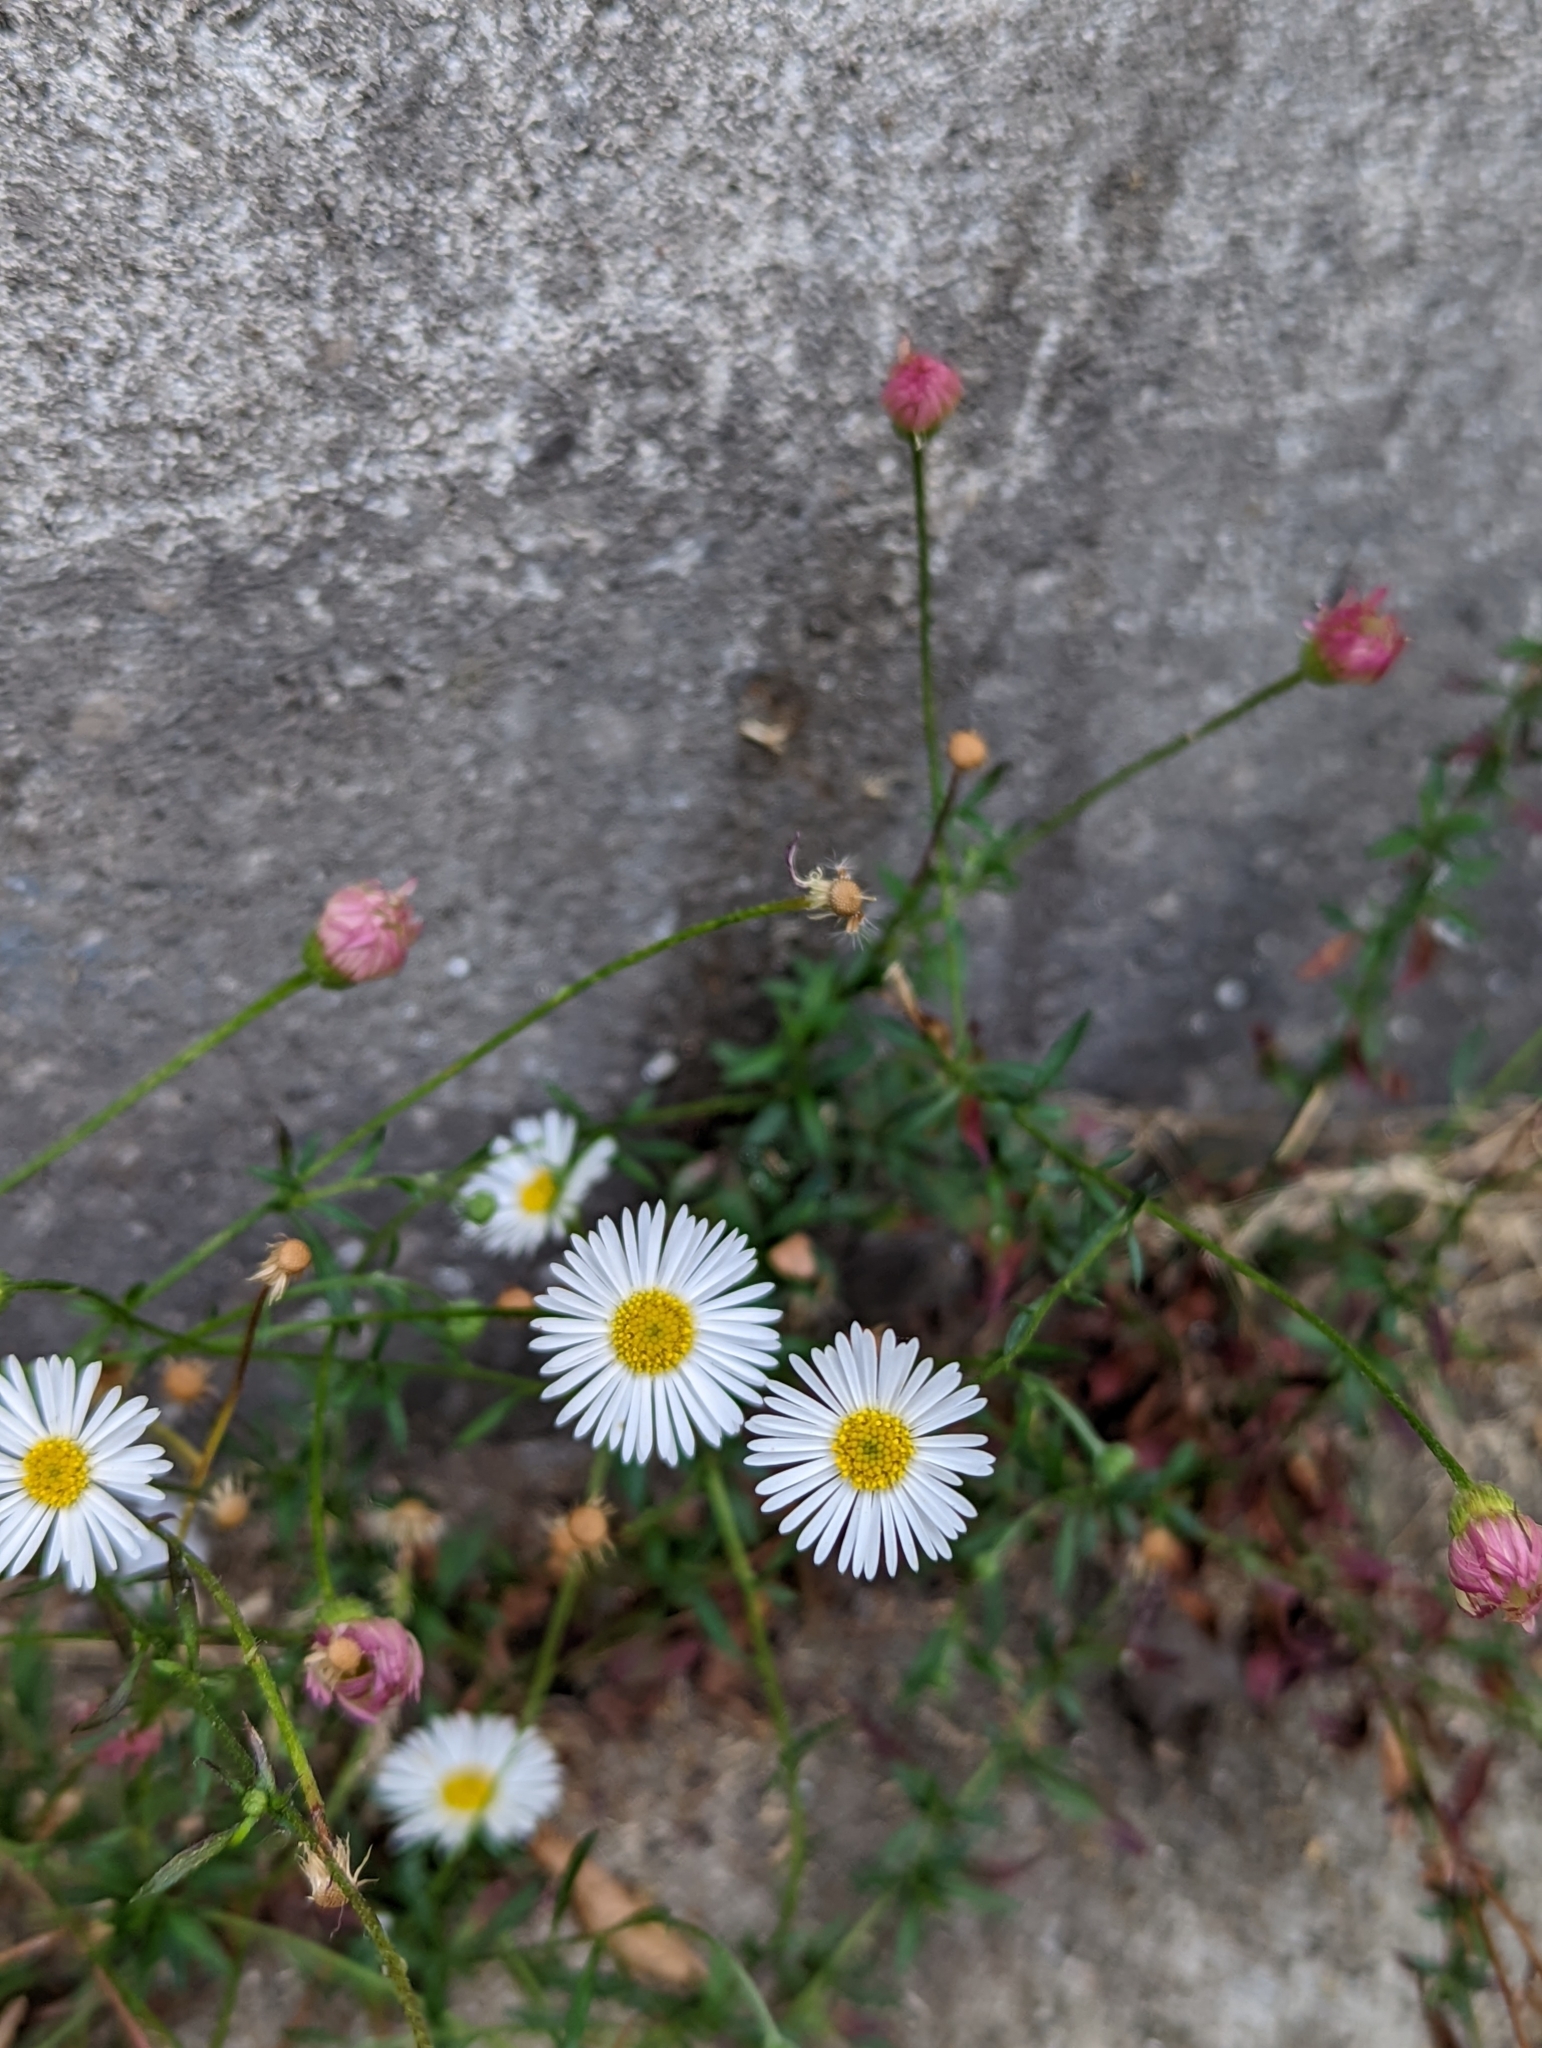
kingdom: Plantae
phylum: Tracheophyta
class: Magnoliopsida
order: Asterales
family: Asteraceae
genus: Erigeron
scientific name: Erigeron karvinskianus
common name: Mexican fleabane
